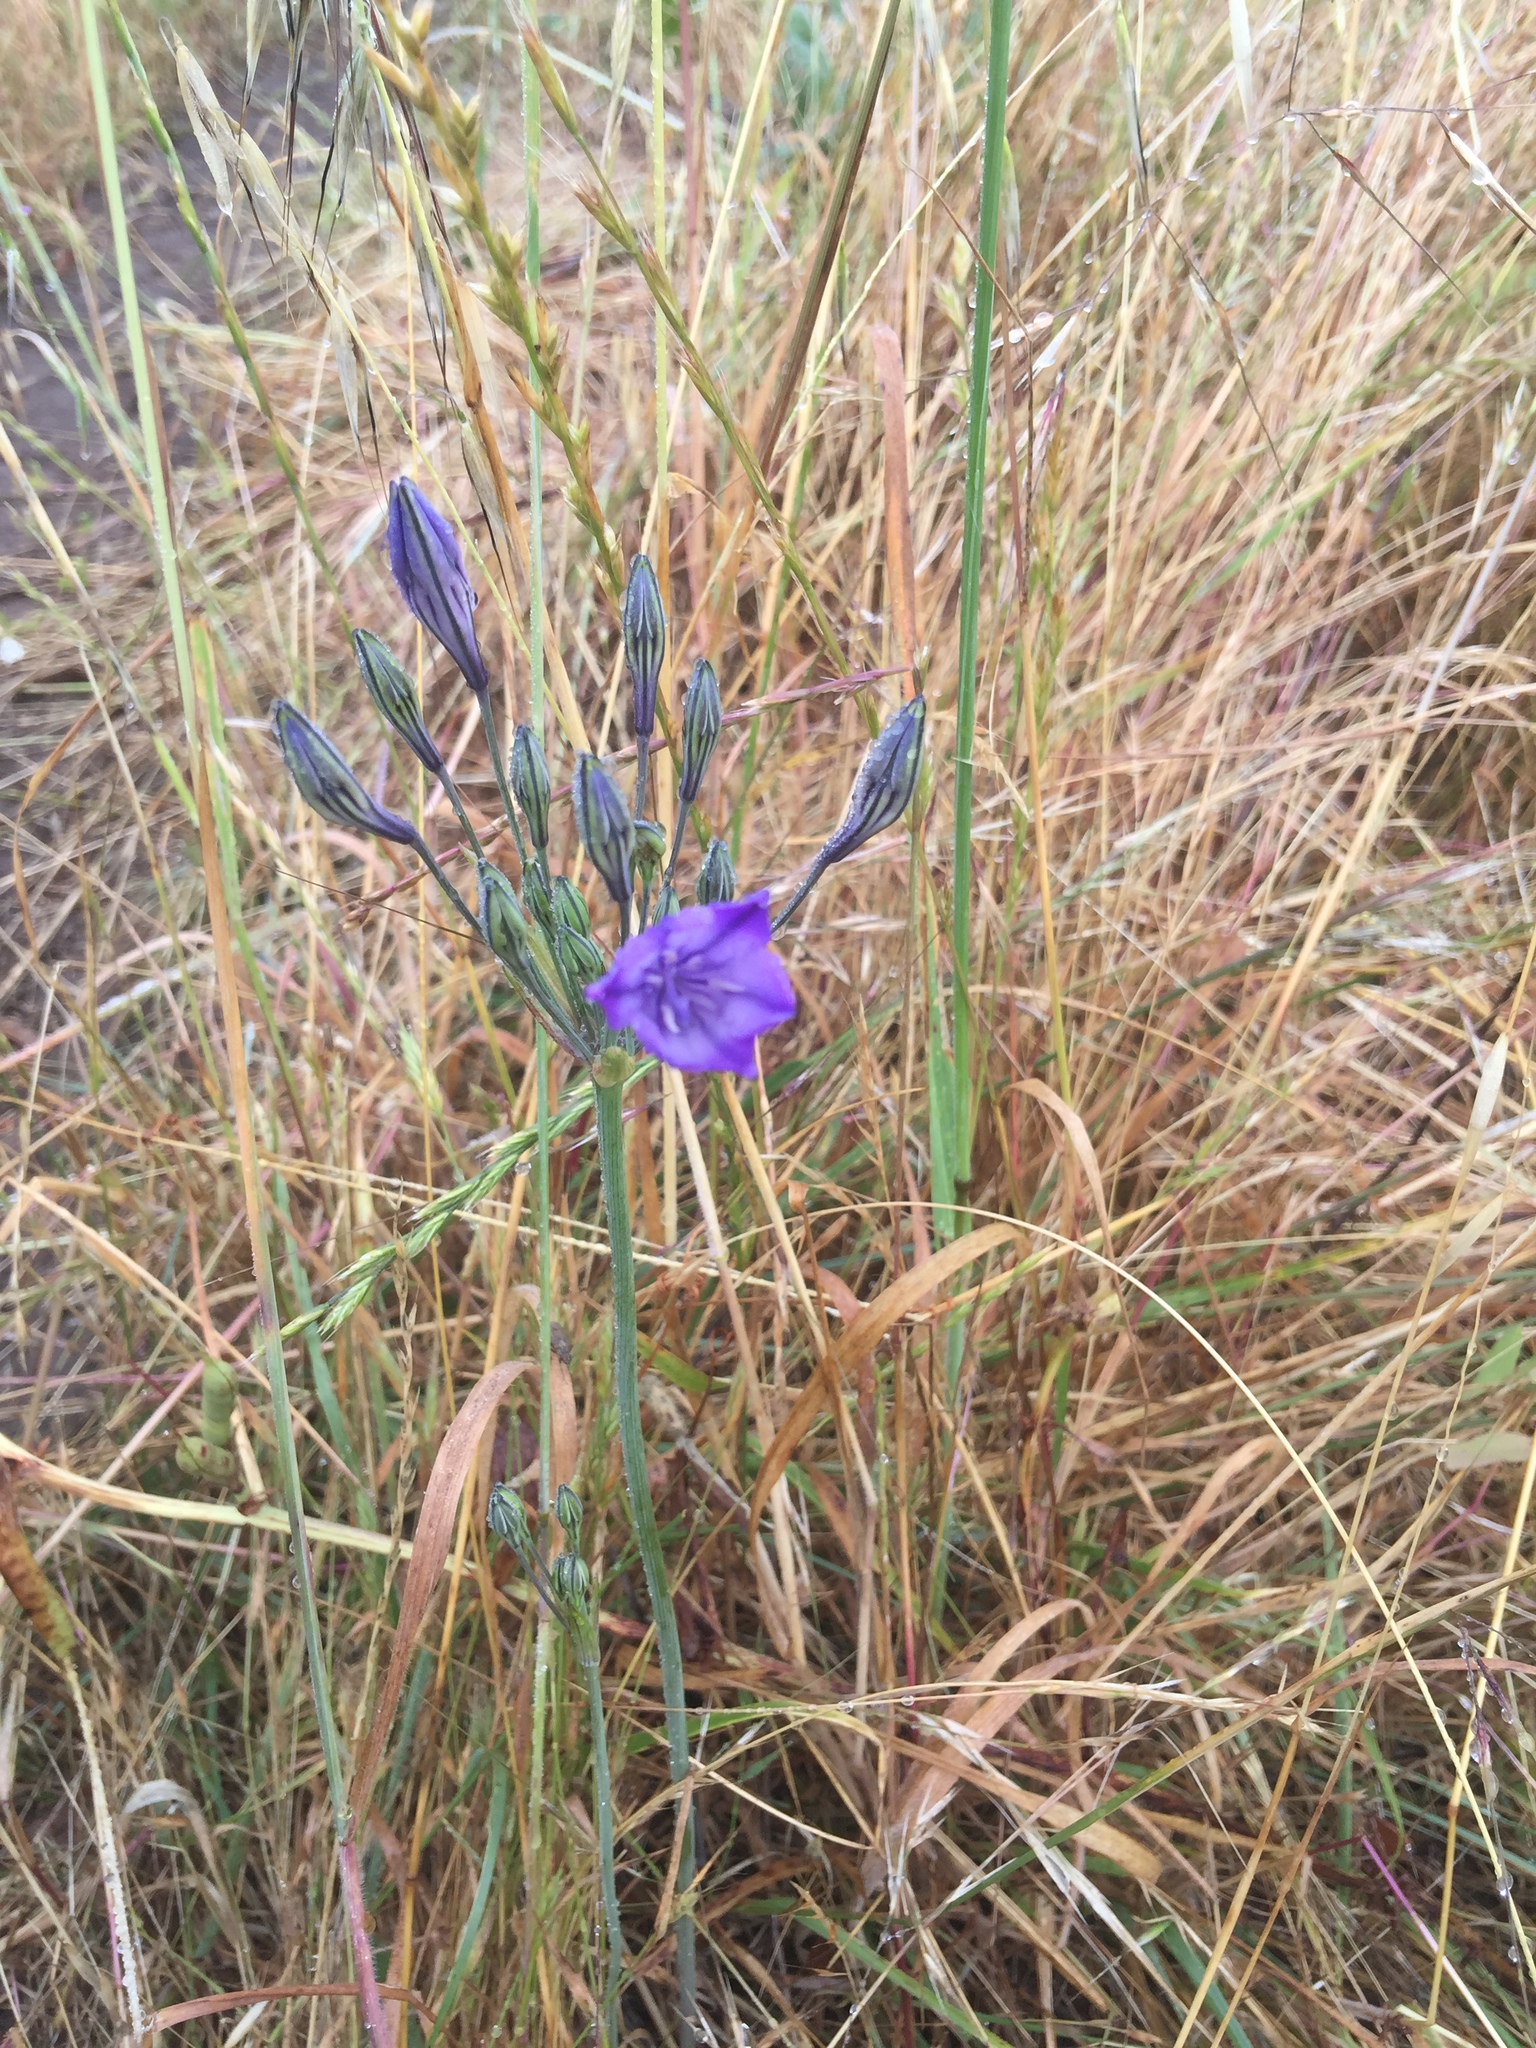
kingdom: Plantae
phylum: Tracheophyta
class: Liliopsida
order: Asparagales
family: Asparagaceae
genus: Triteleia
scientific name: Triteleia laxa
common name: Triplet-lily
